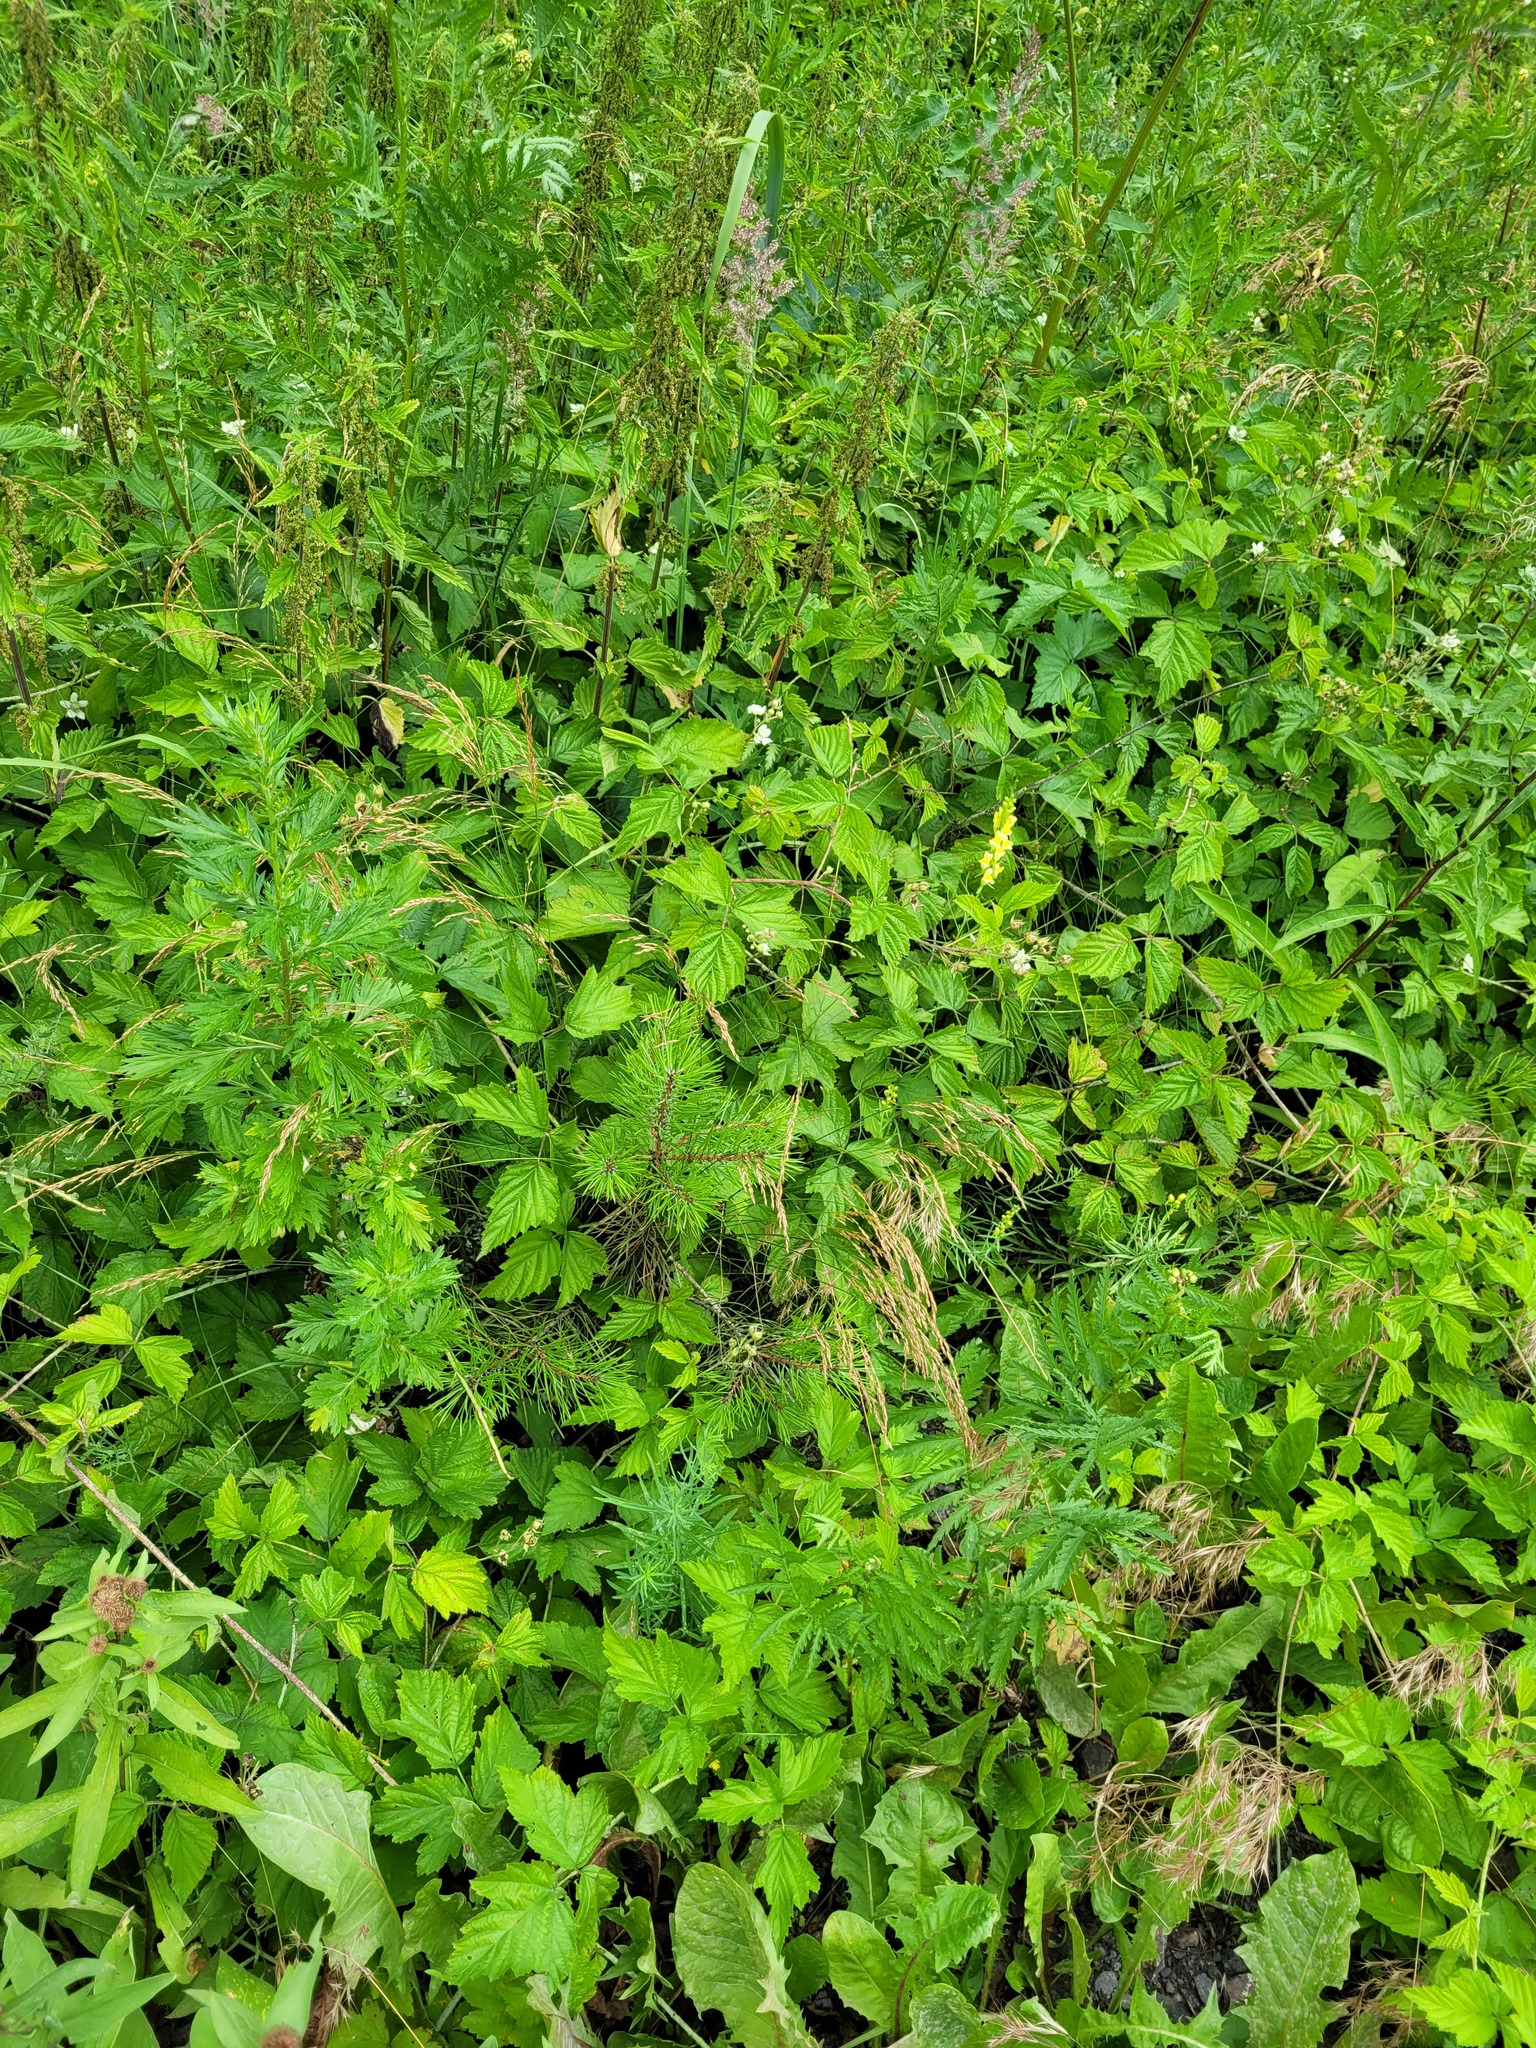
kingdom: Plantae
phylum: Tracheophyta
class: Pinopsida
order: Pinales
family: Pinaceae
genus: Pinus
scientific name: Pinus sylvestris
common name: Scots pine
